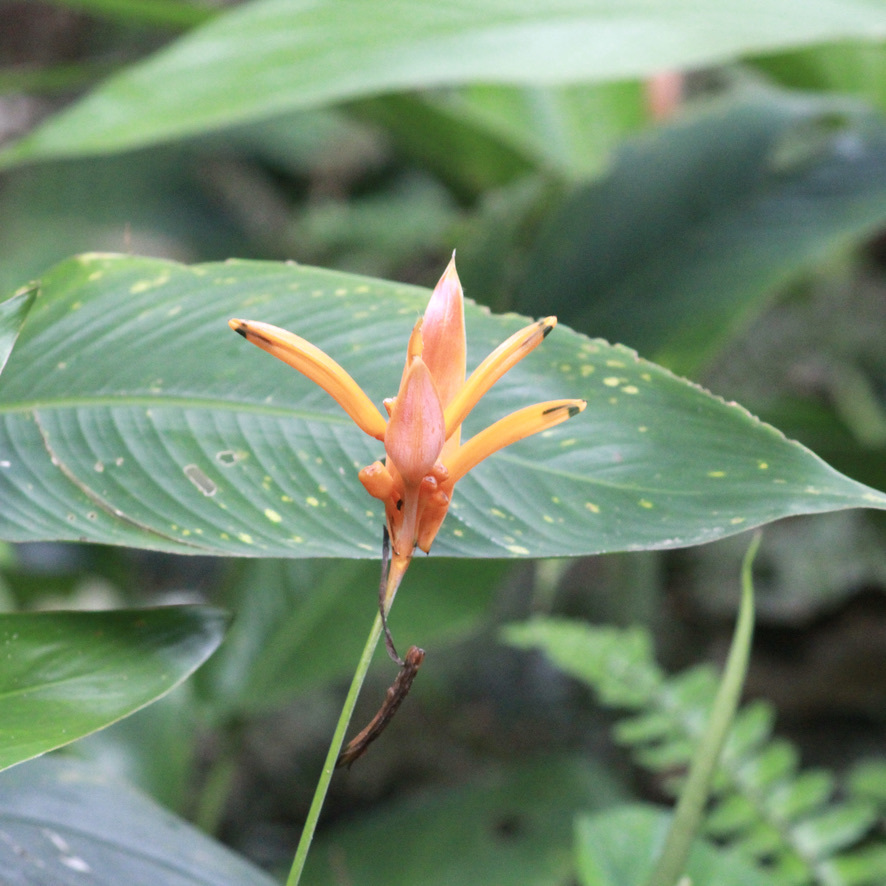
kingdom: Plantae
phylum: Tracheophyta
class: Liliopsida
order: Zingiberales
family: Heliconiaceae
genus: Heliconia
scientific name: Heliconia psittacorum
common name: Parrot's-flower
